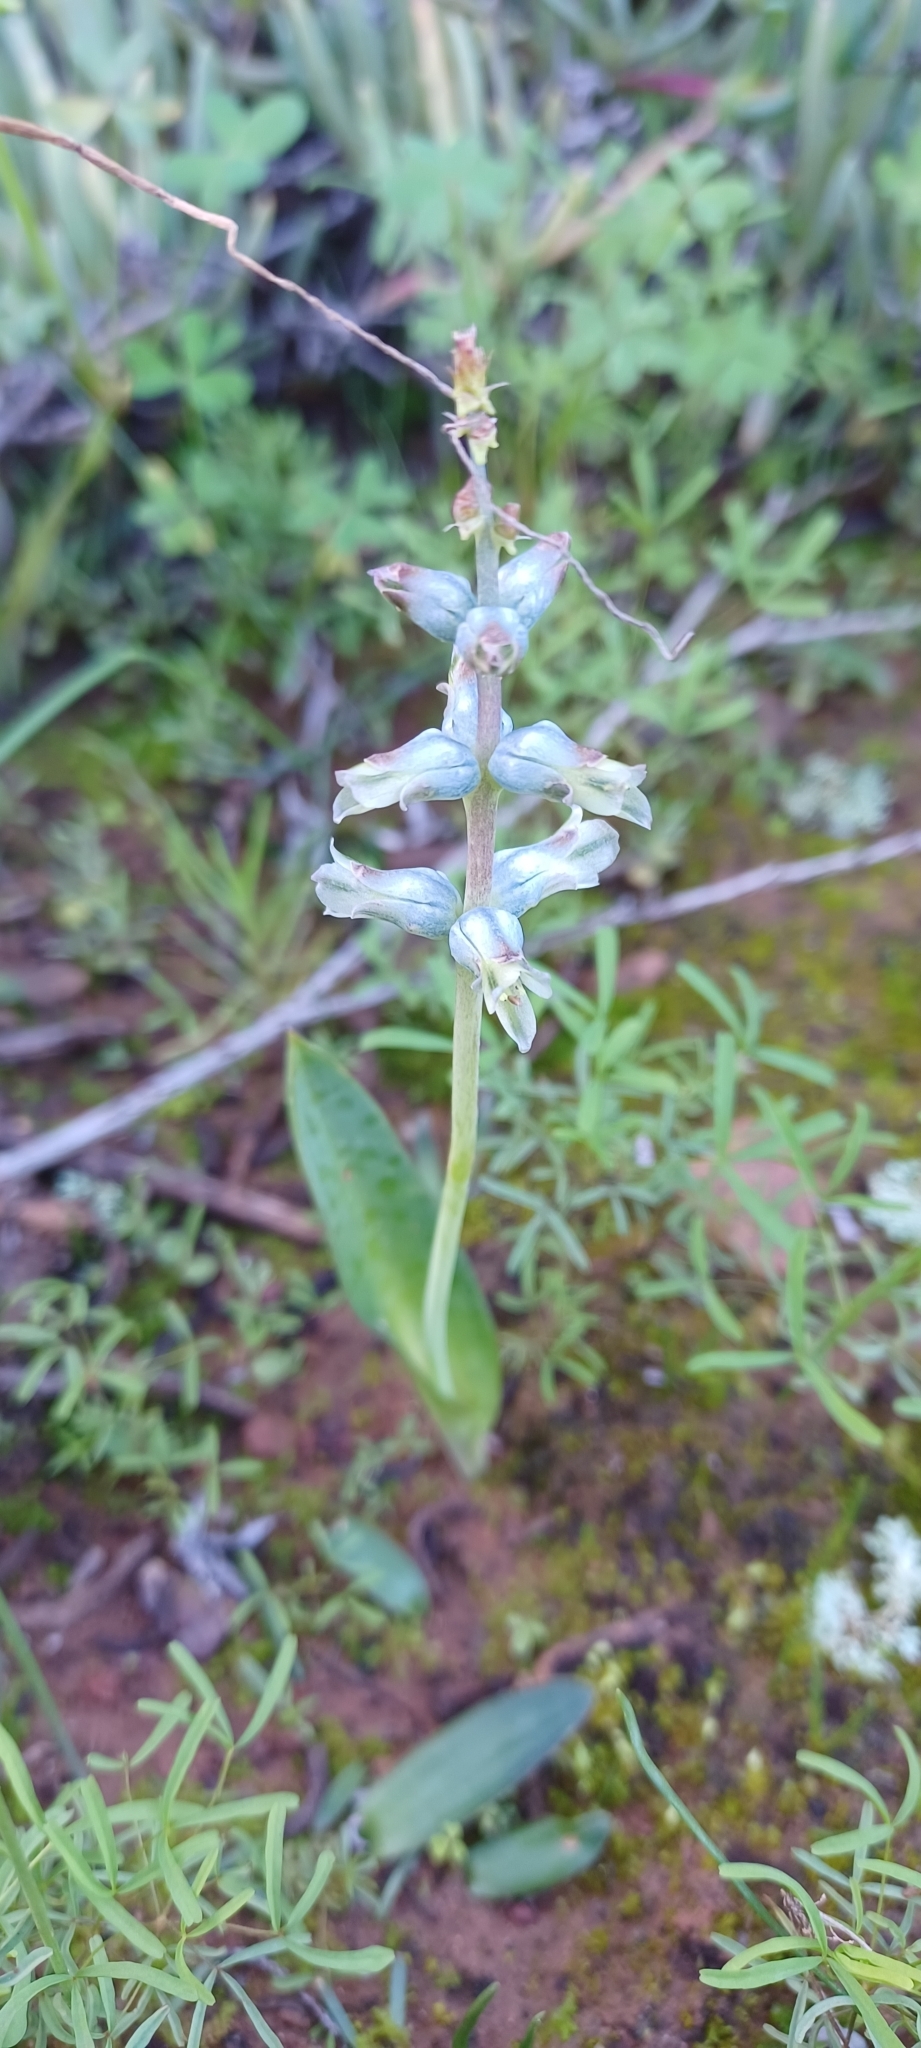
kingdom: Plantae
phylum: Tracheophyta
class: Liliopsida
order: Asparagales
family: Asparagaceae
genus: Lachenalia
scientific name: Lachenalia aurioliae
